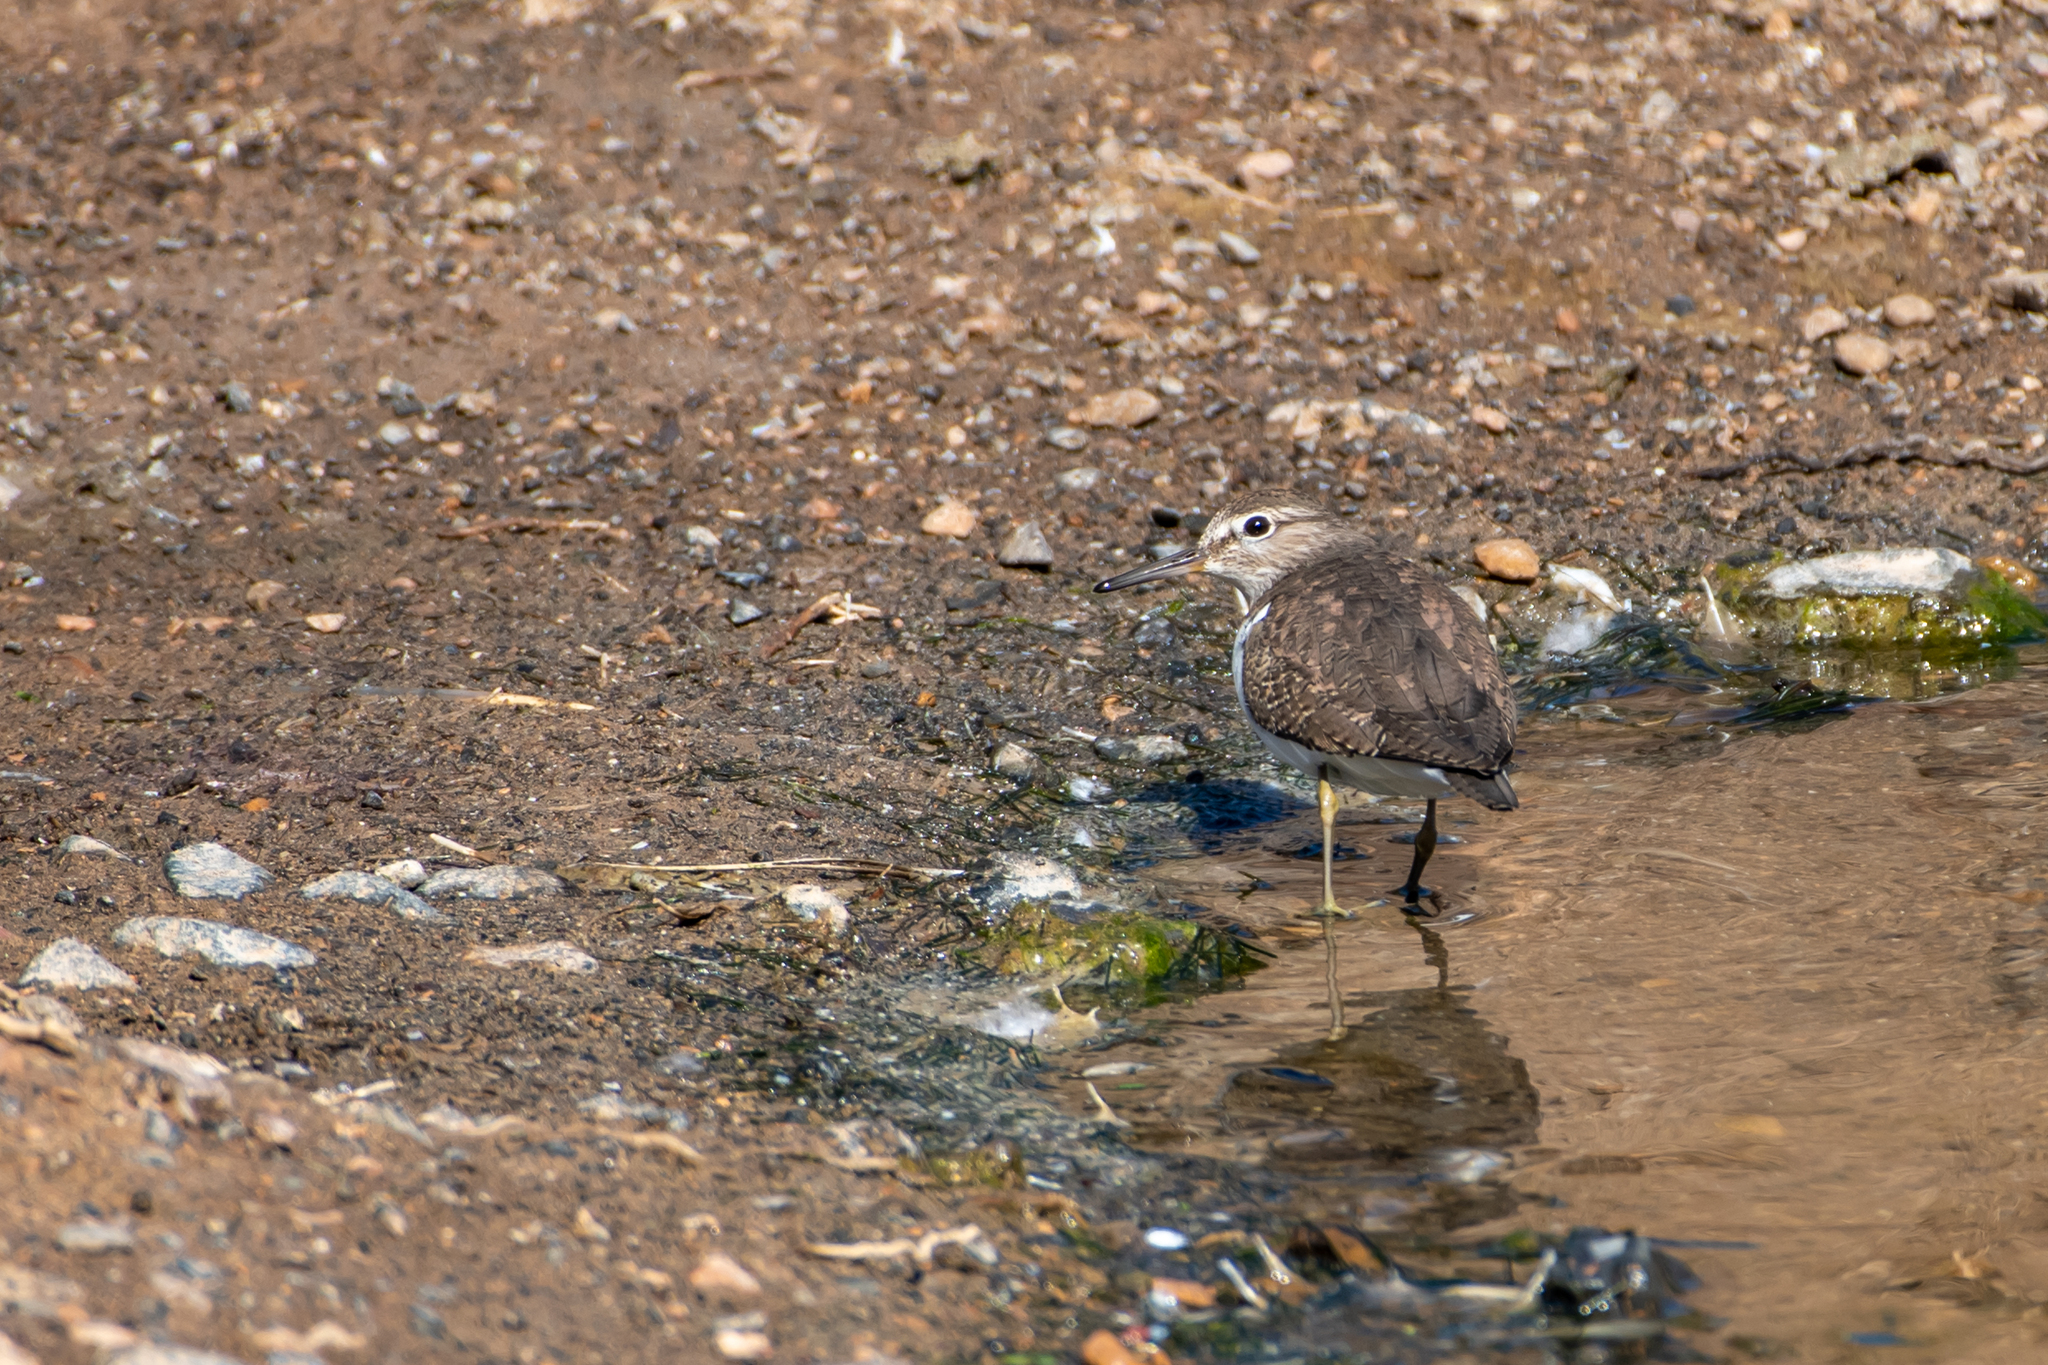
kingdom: Animalia
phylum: Chordata
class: Aves
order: Charadriiformes
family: Scolopacidae
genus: Actitis
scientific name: Actitis hypoleucos
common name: Common sandpiper
